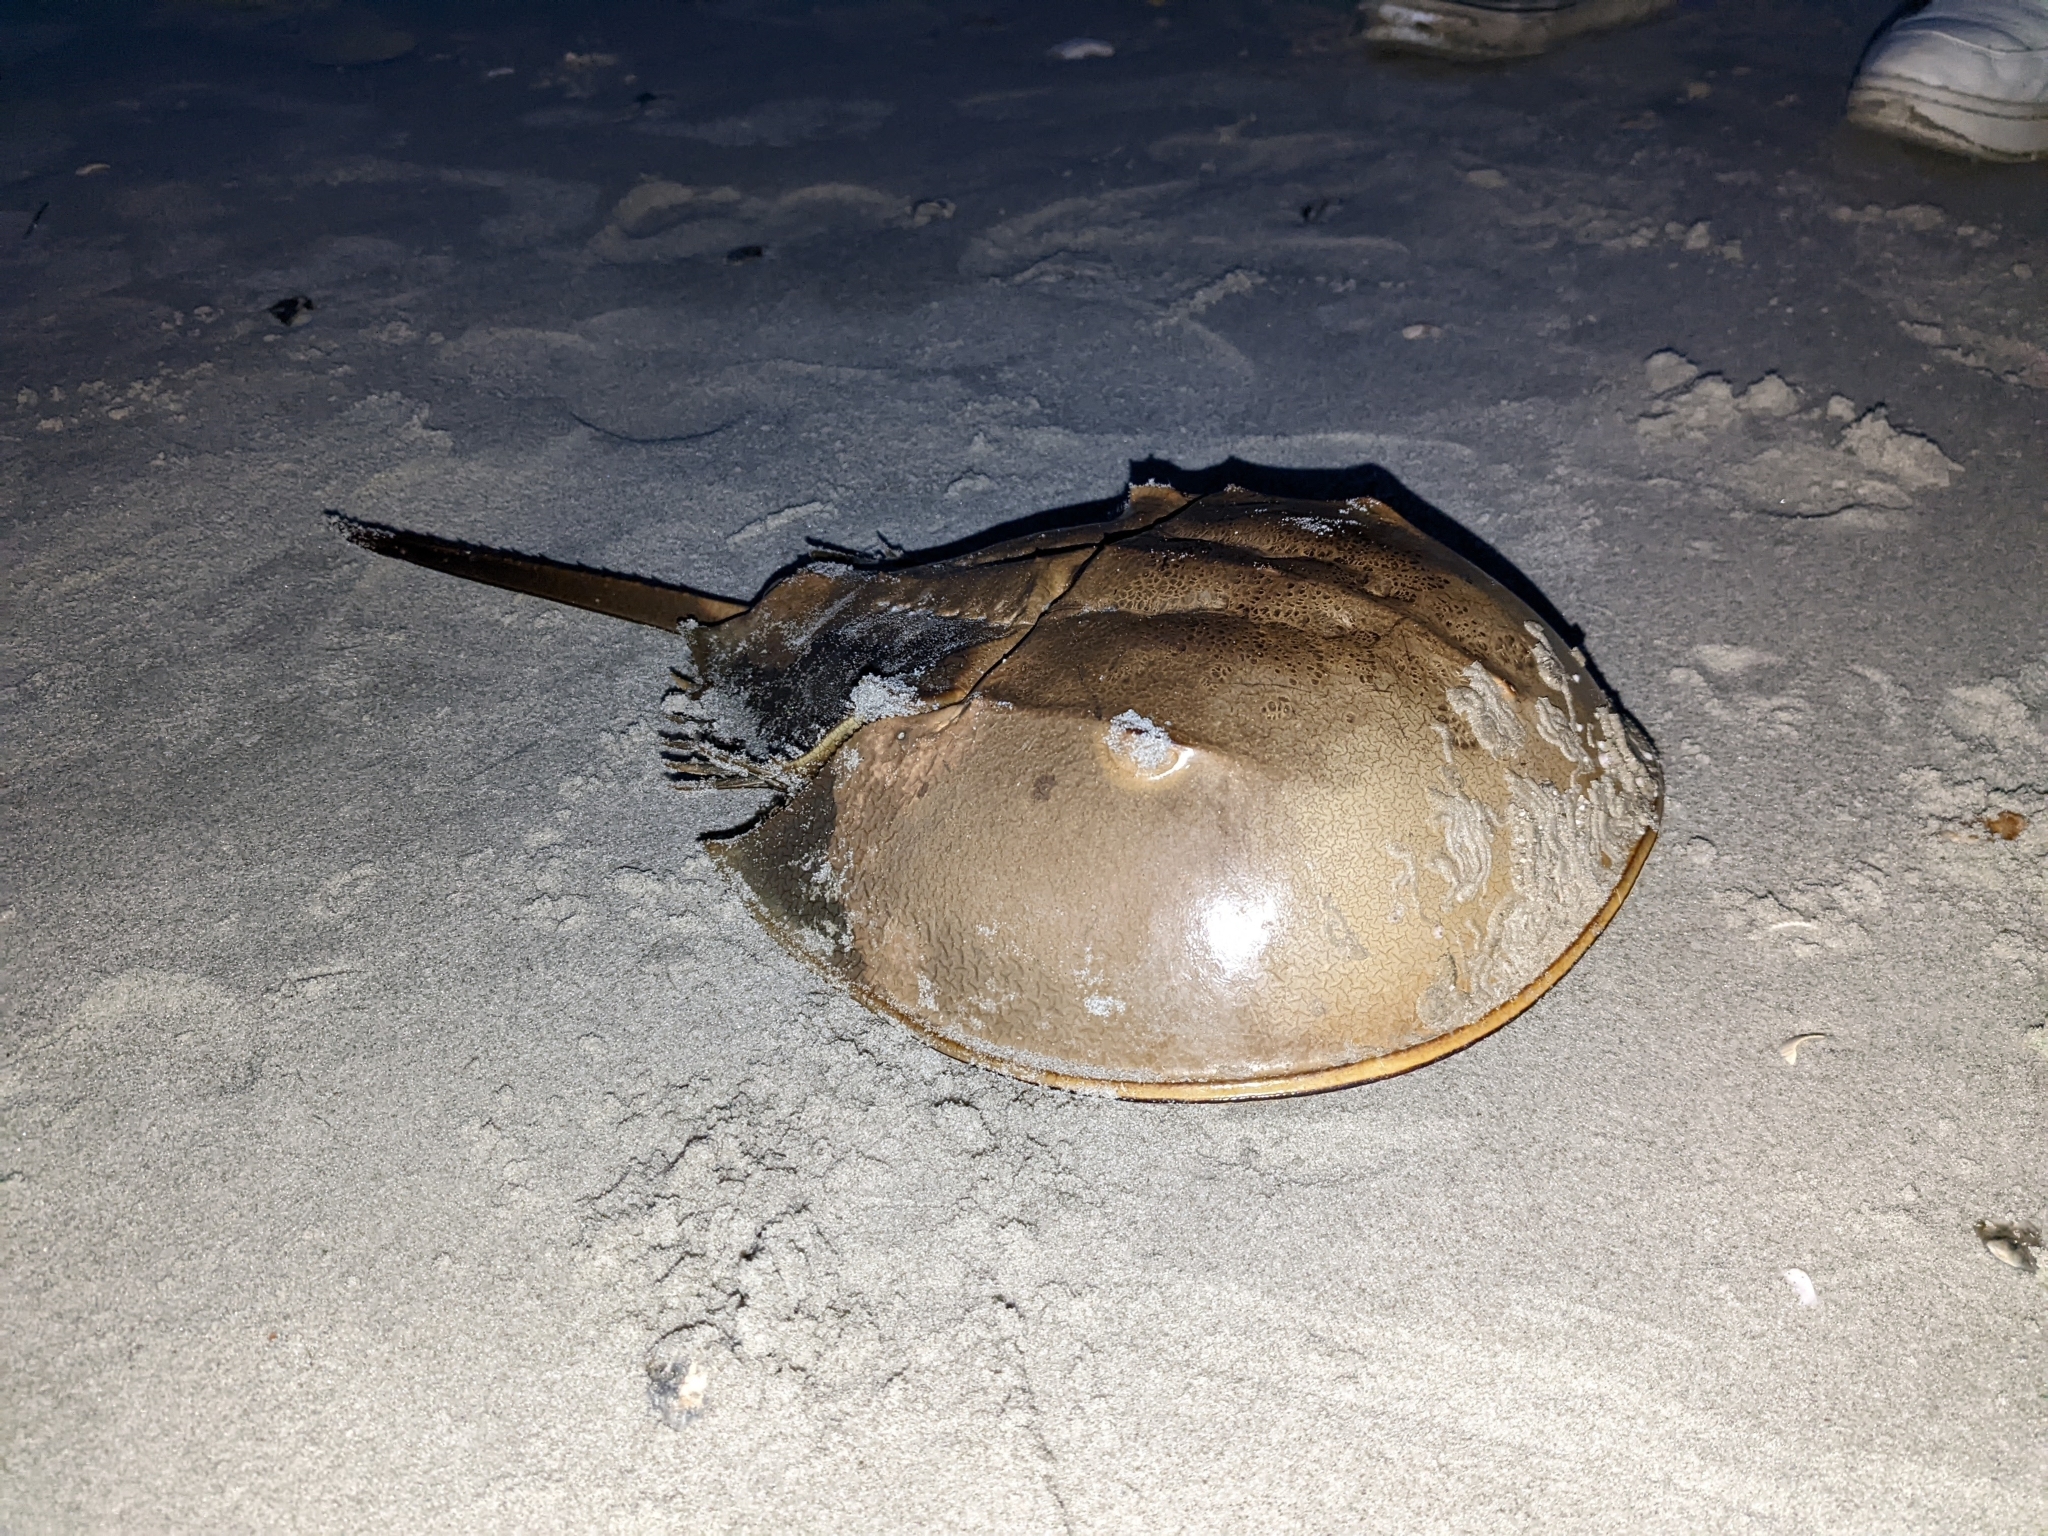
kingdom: Animalia
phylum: Arthropoda
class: Merostomata
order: Xiphosurida
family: Limulidae
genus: Limulus
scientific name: Limulus polyphemus
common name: Horseshoe crab
